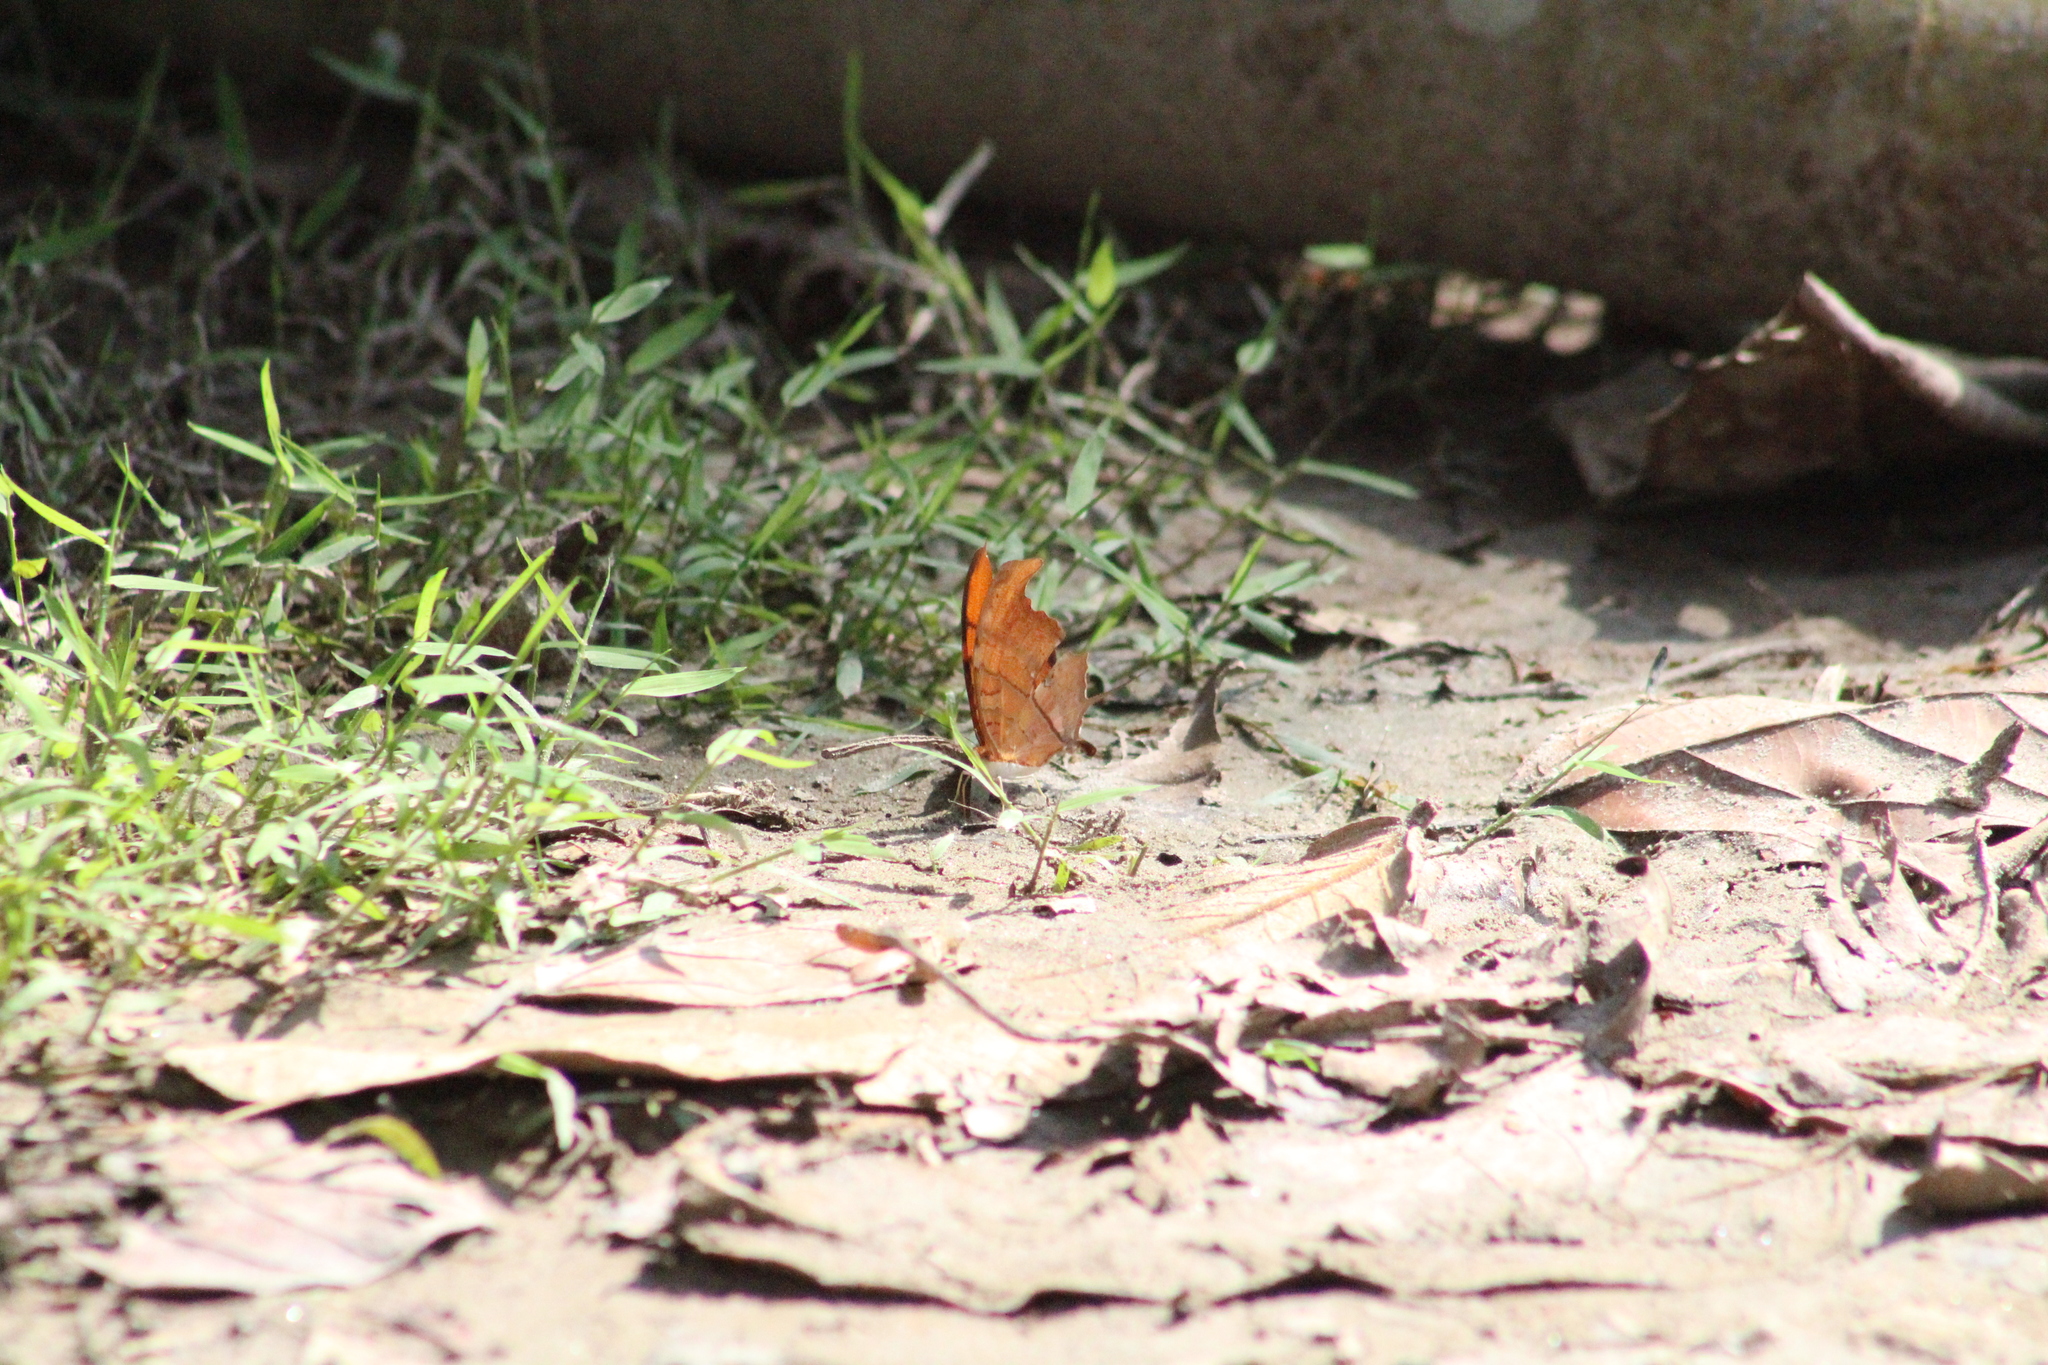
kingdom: Animalia
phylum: Arthropoda
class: Insecta
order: Lepidoptera
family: Nymphalidae
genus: Marpesia
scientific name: Marpesia petreus
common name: Red dagger wing
